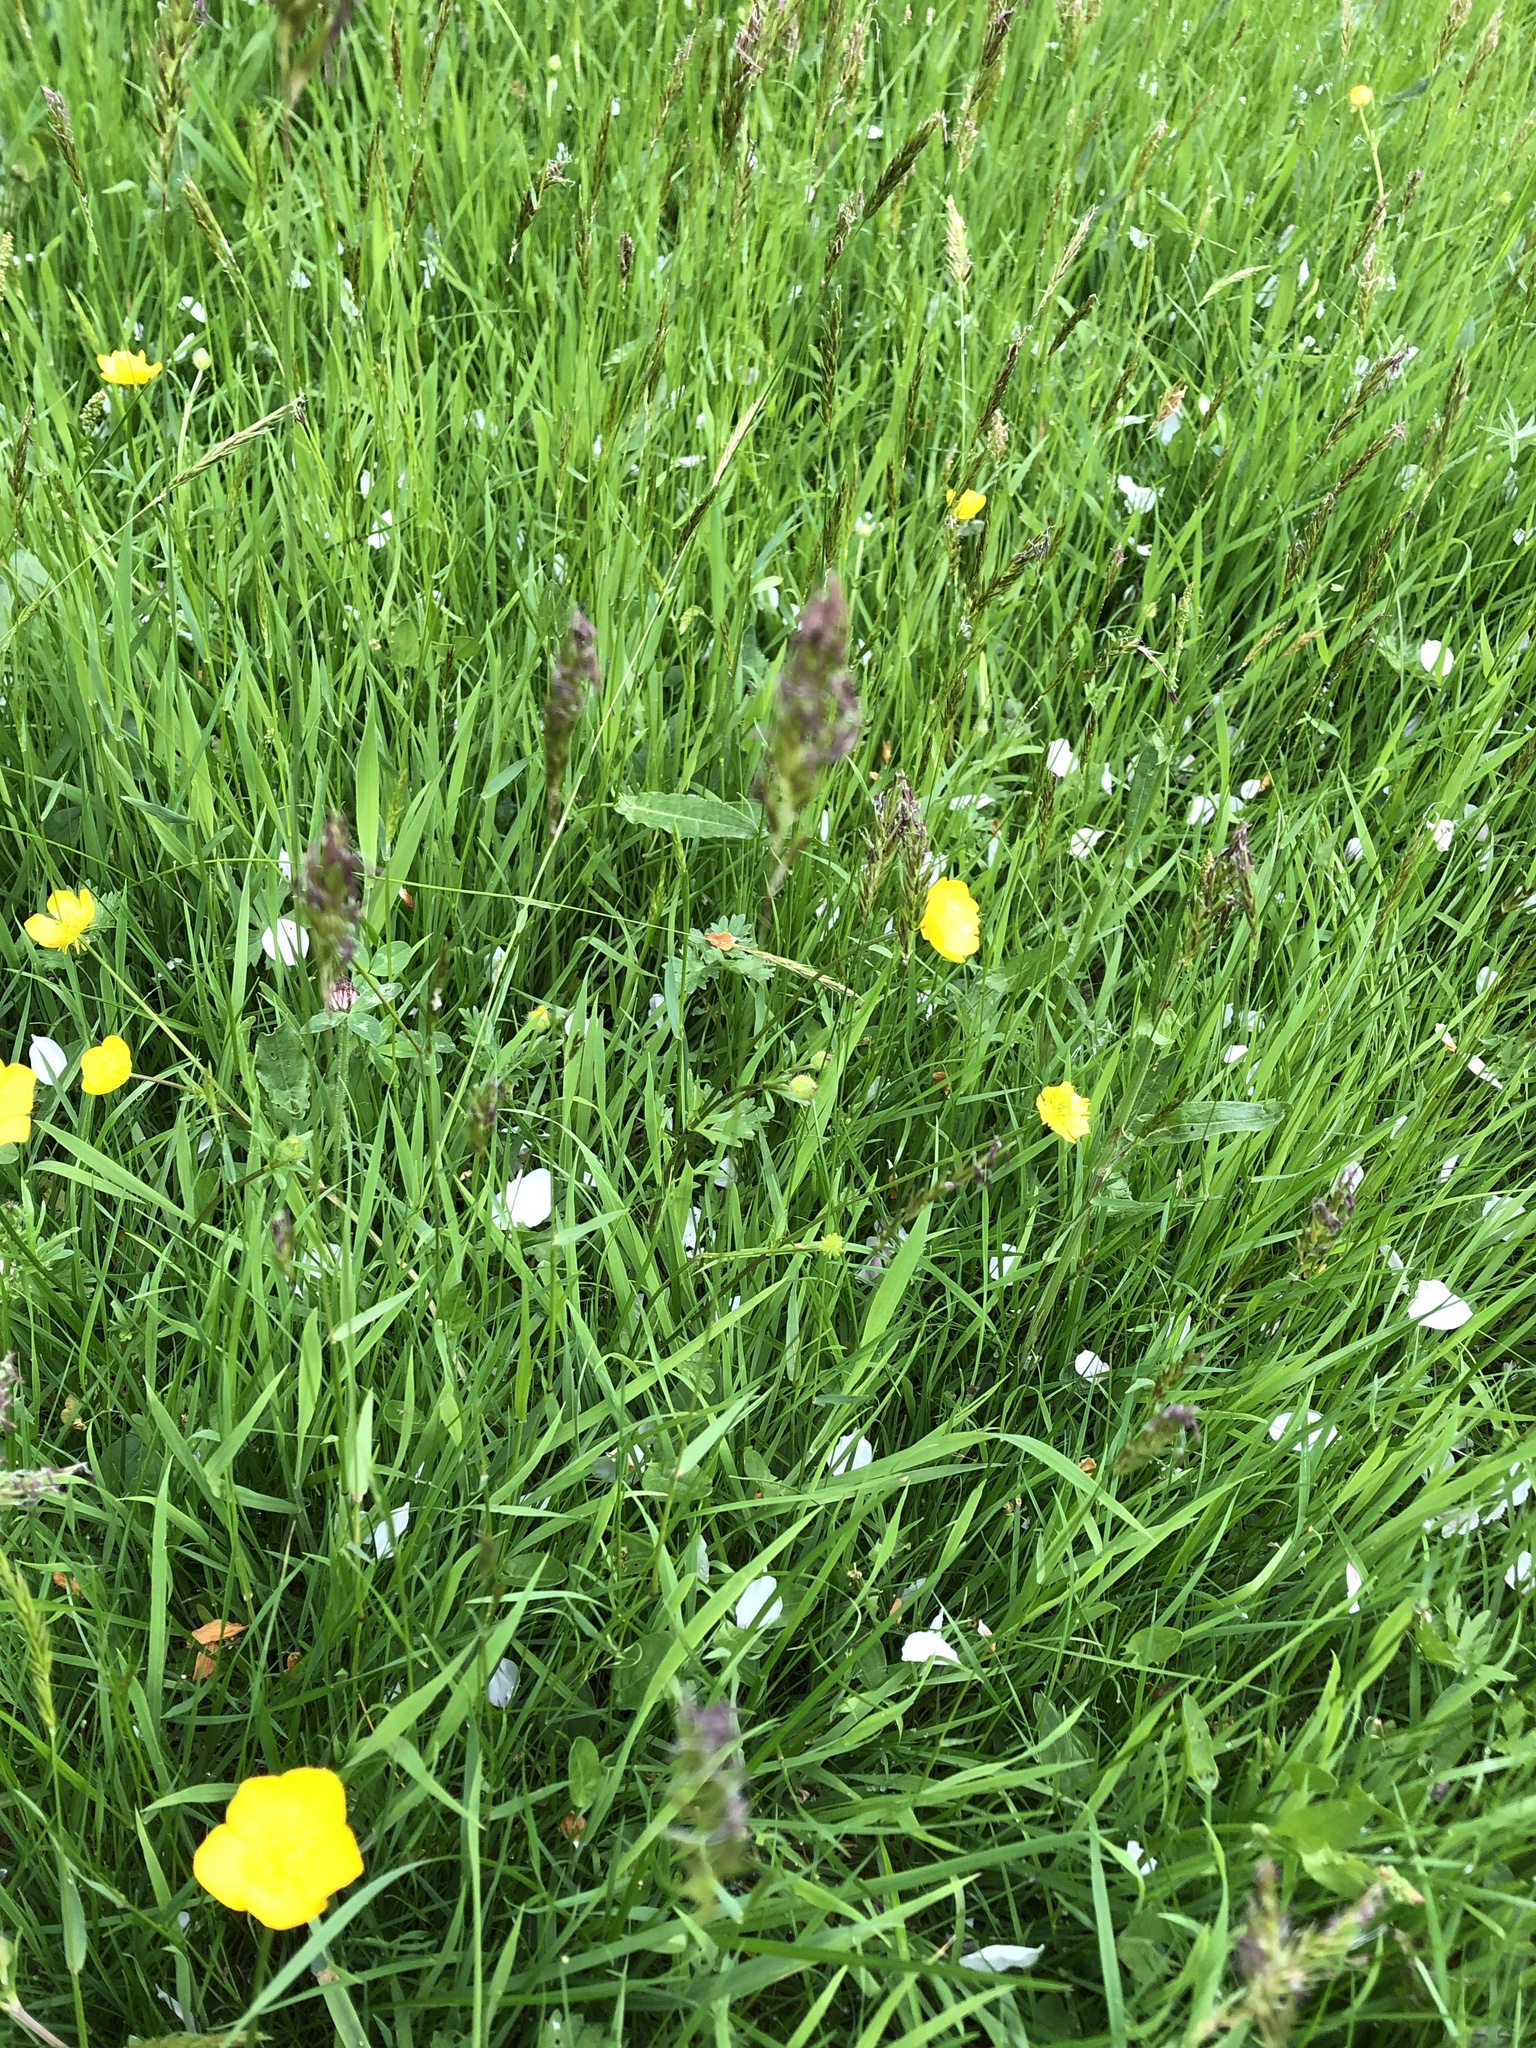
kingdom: Plantae
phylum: Tracheophyta
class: Liliopsida
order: Poales
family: Poaceae
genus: Anthoxanthum
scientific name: Anthoxanthum odoratum
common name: Sweet vernalgrass
